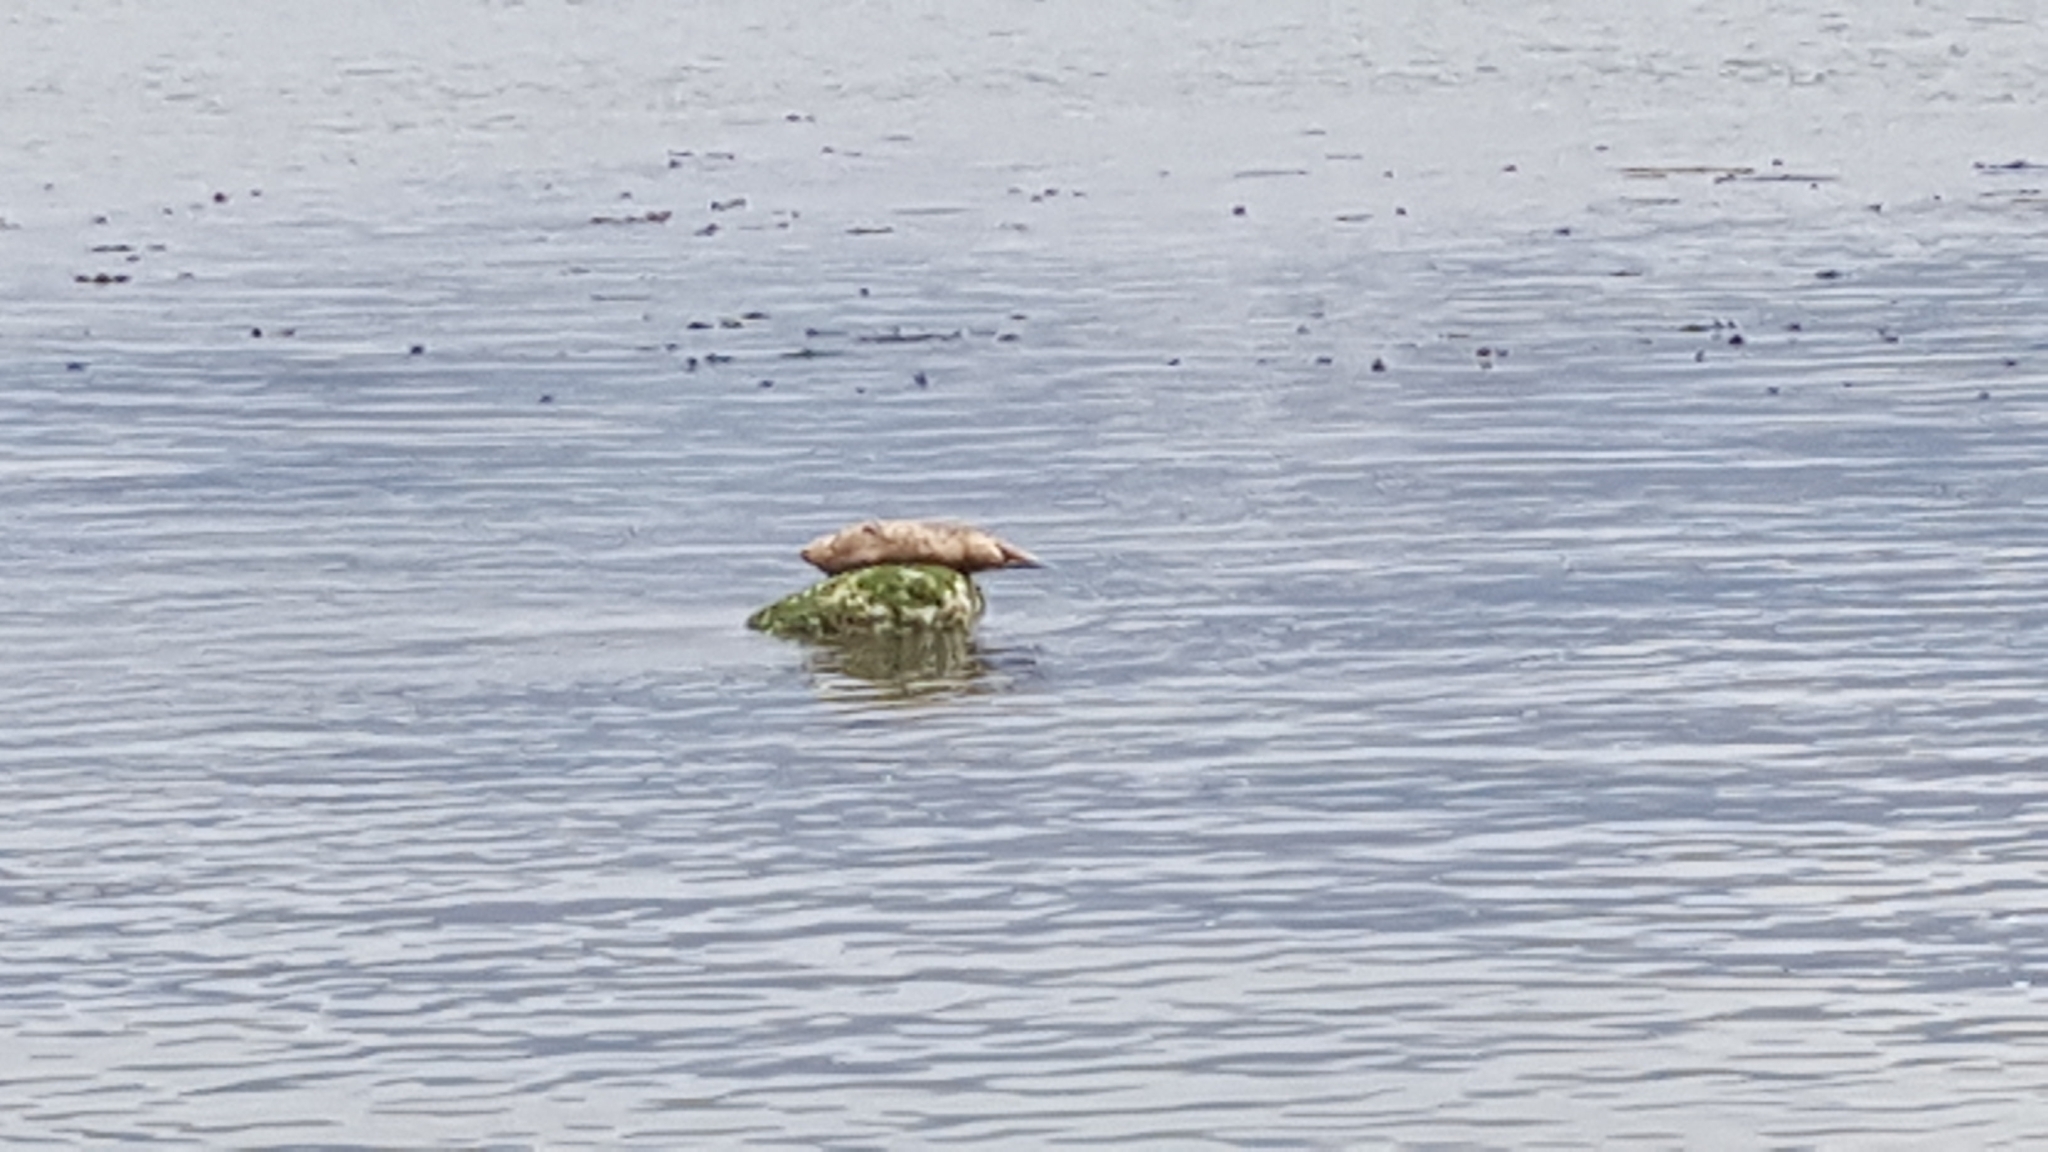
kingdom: Animalia
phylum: Chordata
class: Mammalia
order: Carnivora
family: Phocidae
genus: Phoca
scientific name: Phoca vitulina
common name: Harbor seal
